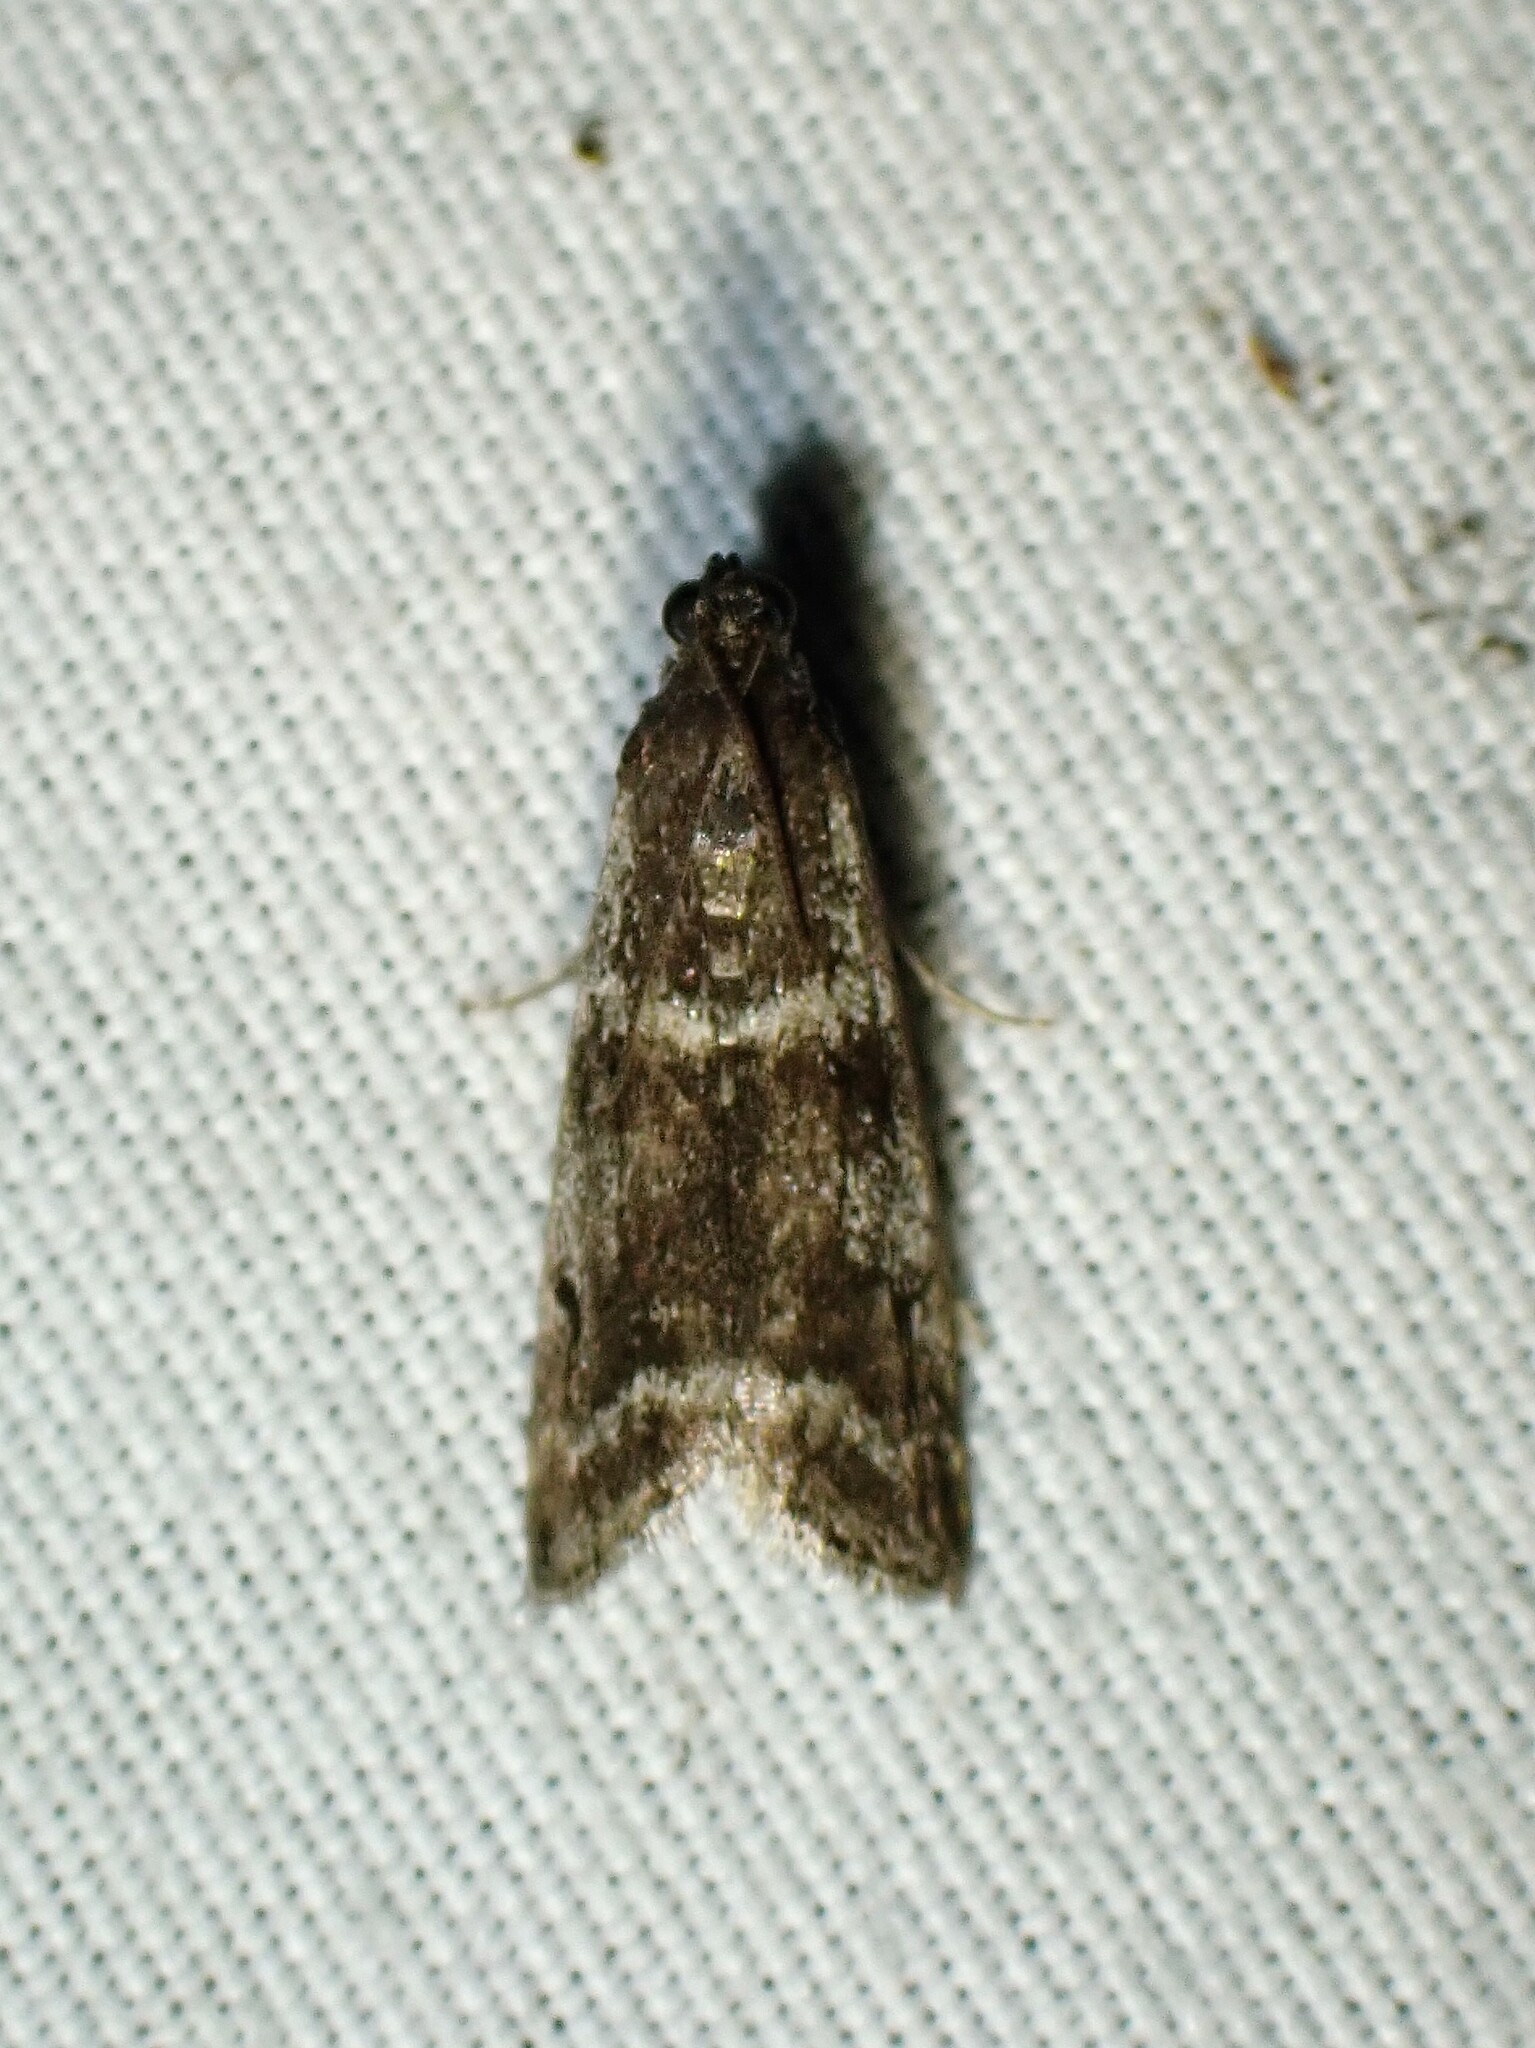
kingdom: Animalia
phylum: Arthropoda
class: Insecta
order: Lepidoptera
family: Pyralidae
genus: Apomyelois
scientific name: Apomyelois bistriatella
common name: Heath knot-horn
